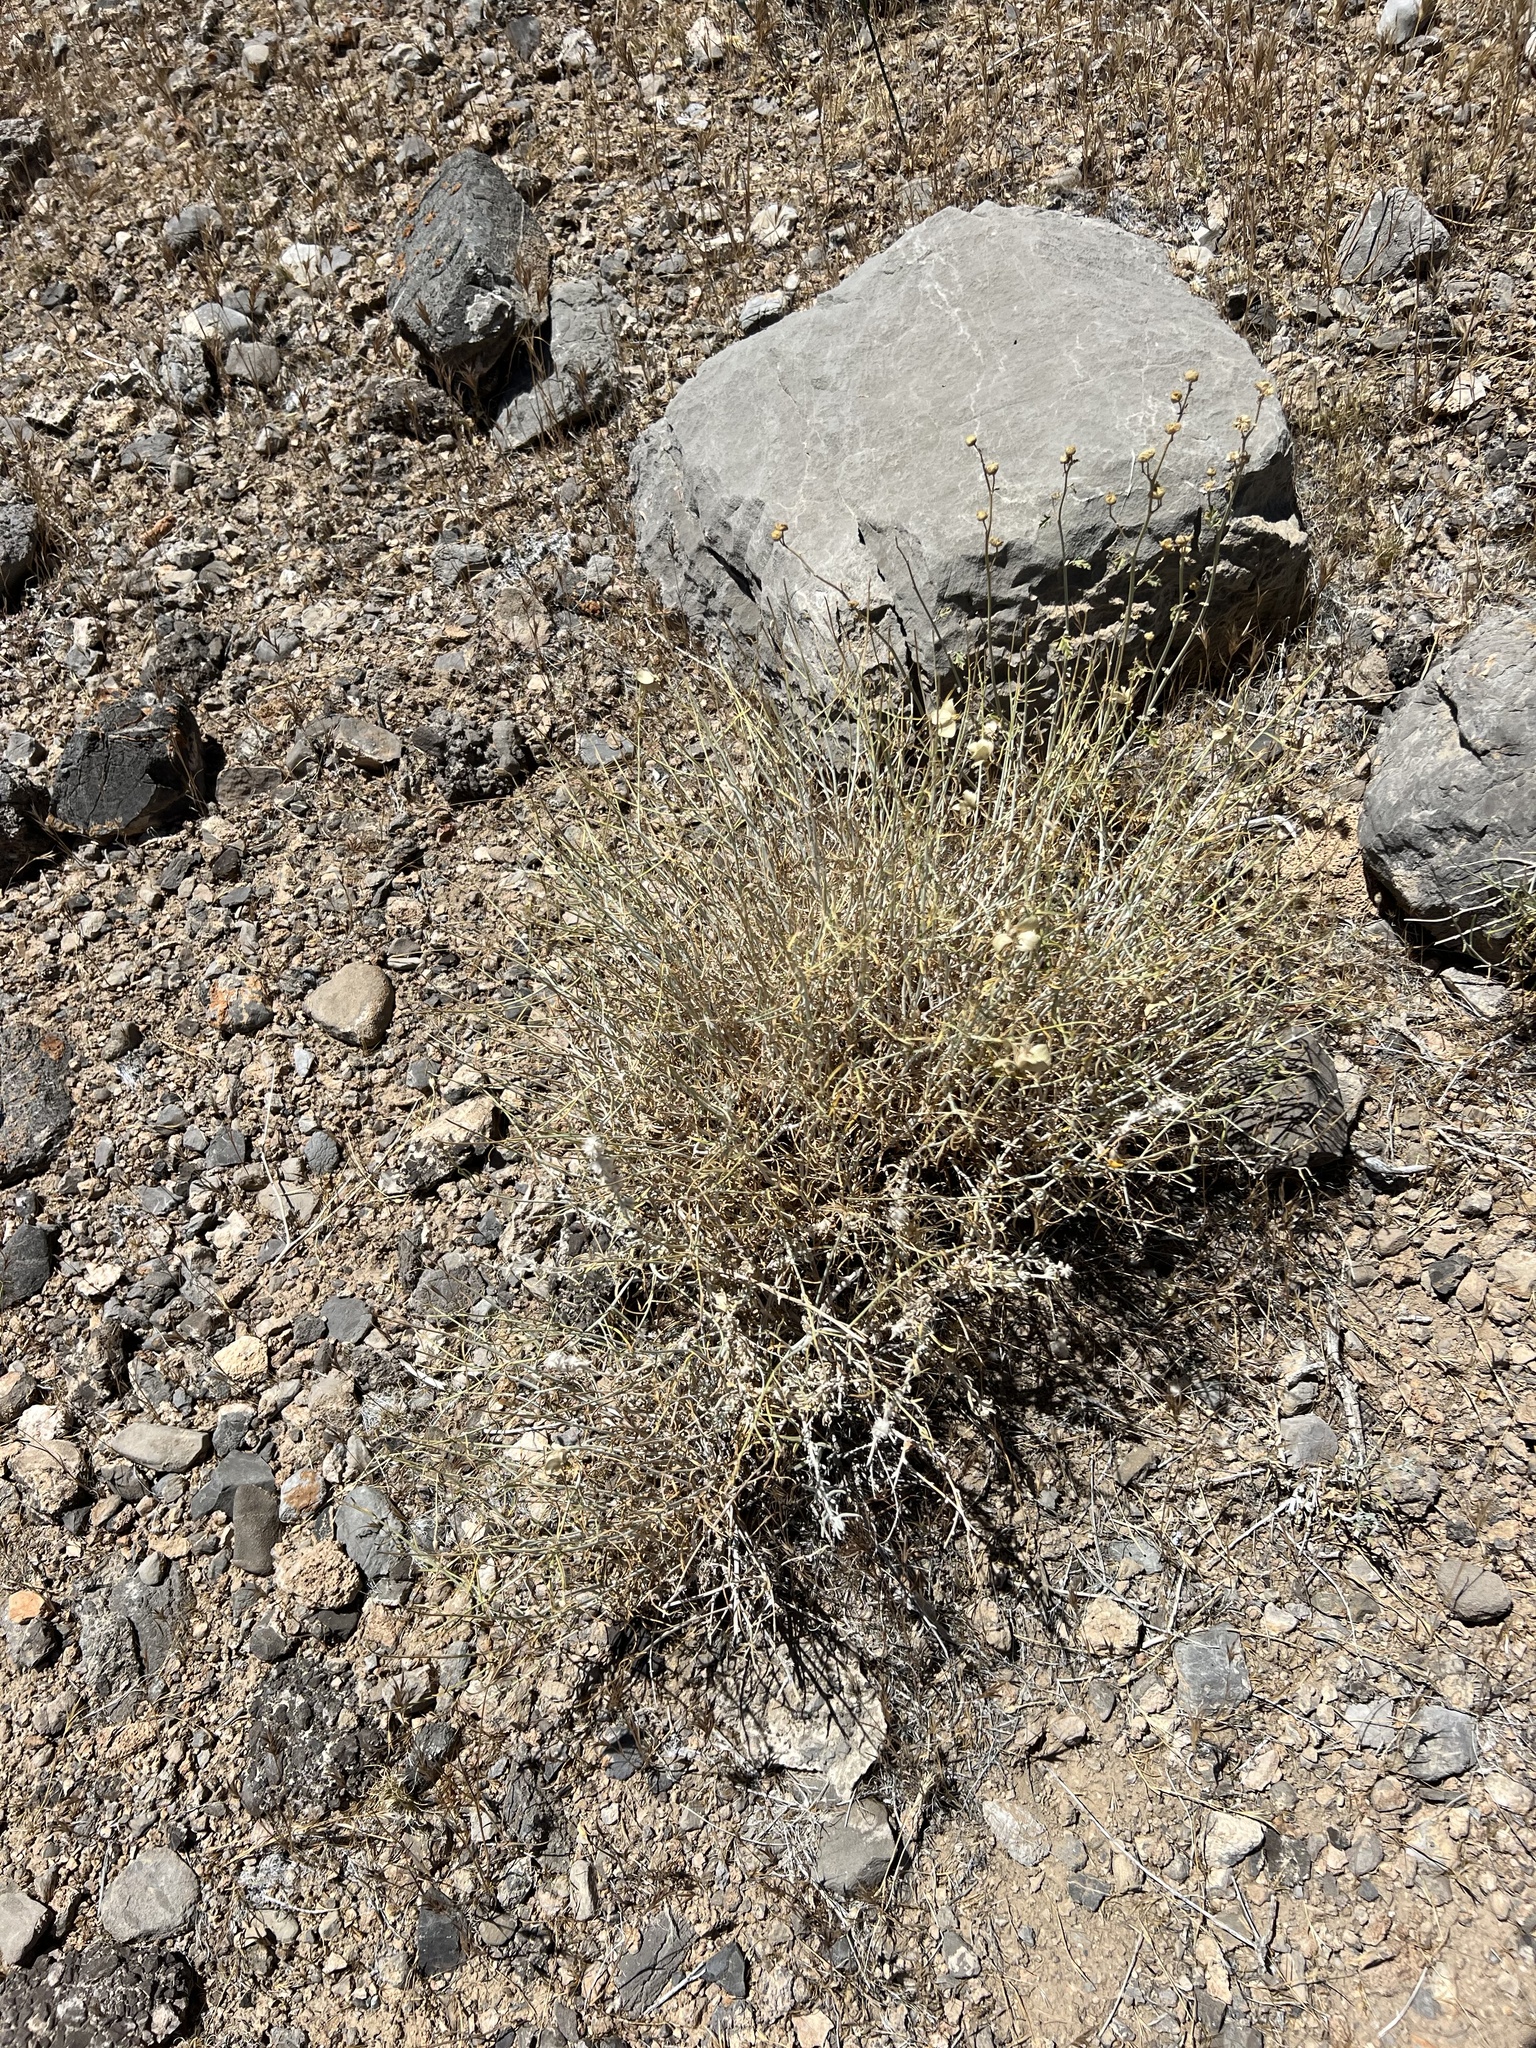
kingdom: Plantae
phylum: Tracheophyta
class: Magnoliopsida
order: Asterales
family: Asteraceae
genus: Psilostrophe
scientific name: Psilostrophe cooperi
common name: White-stem paper-flower
